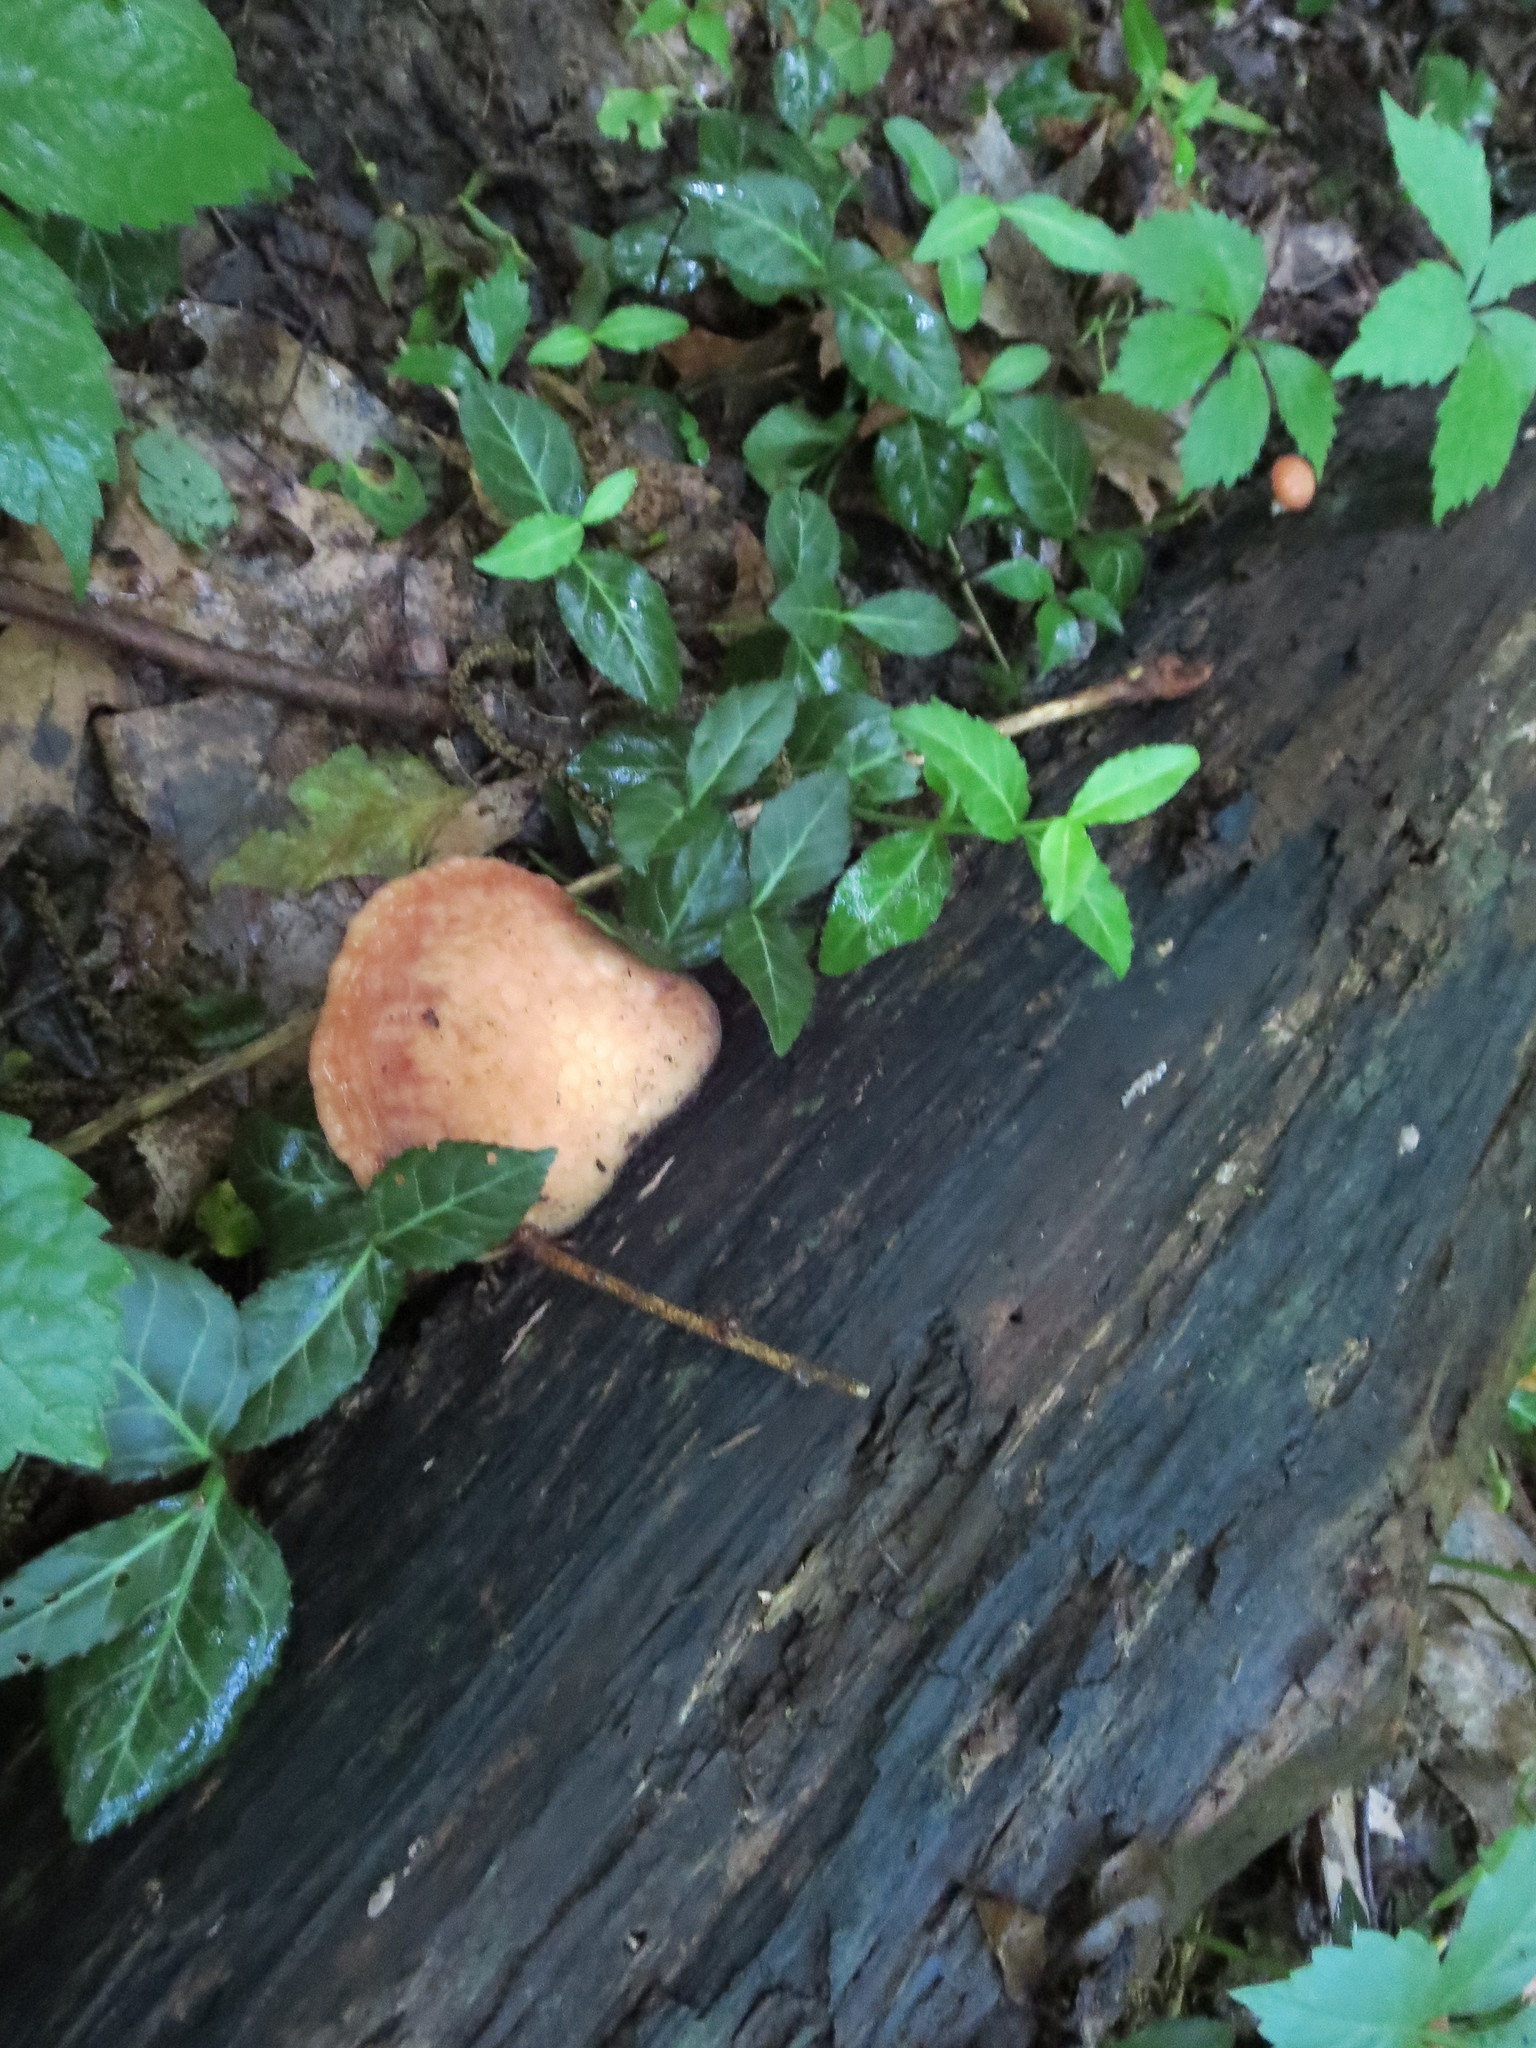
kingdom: Fungi
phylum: Basidiomycota
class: Agaricomycetes
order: Agaricales
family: Physalacriaceae
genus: Rhodotus
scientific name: Rhodotus palmatus
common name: Wrinkled peach
